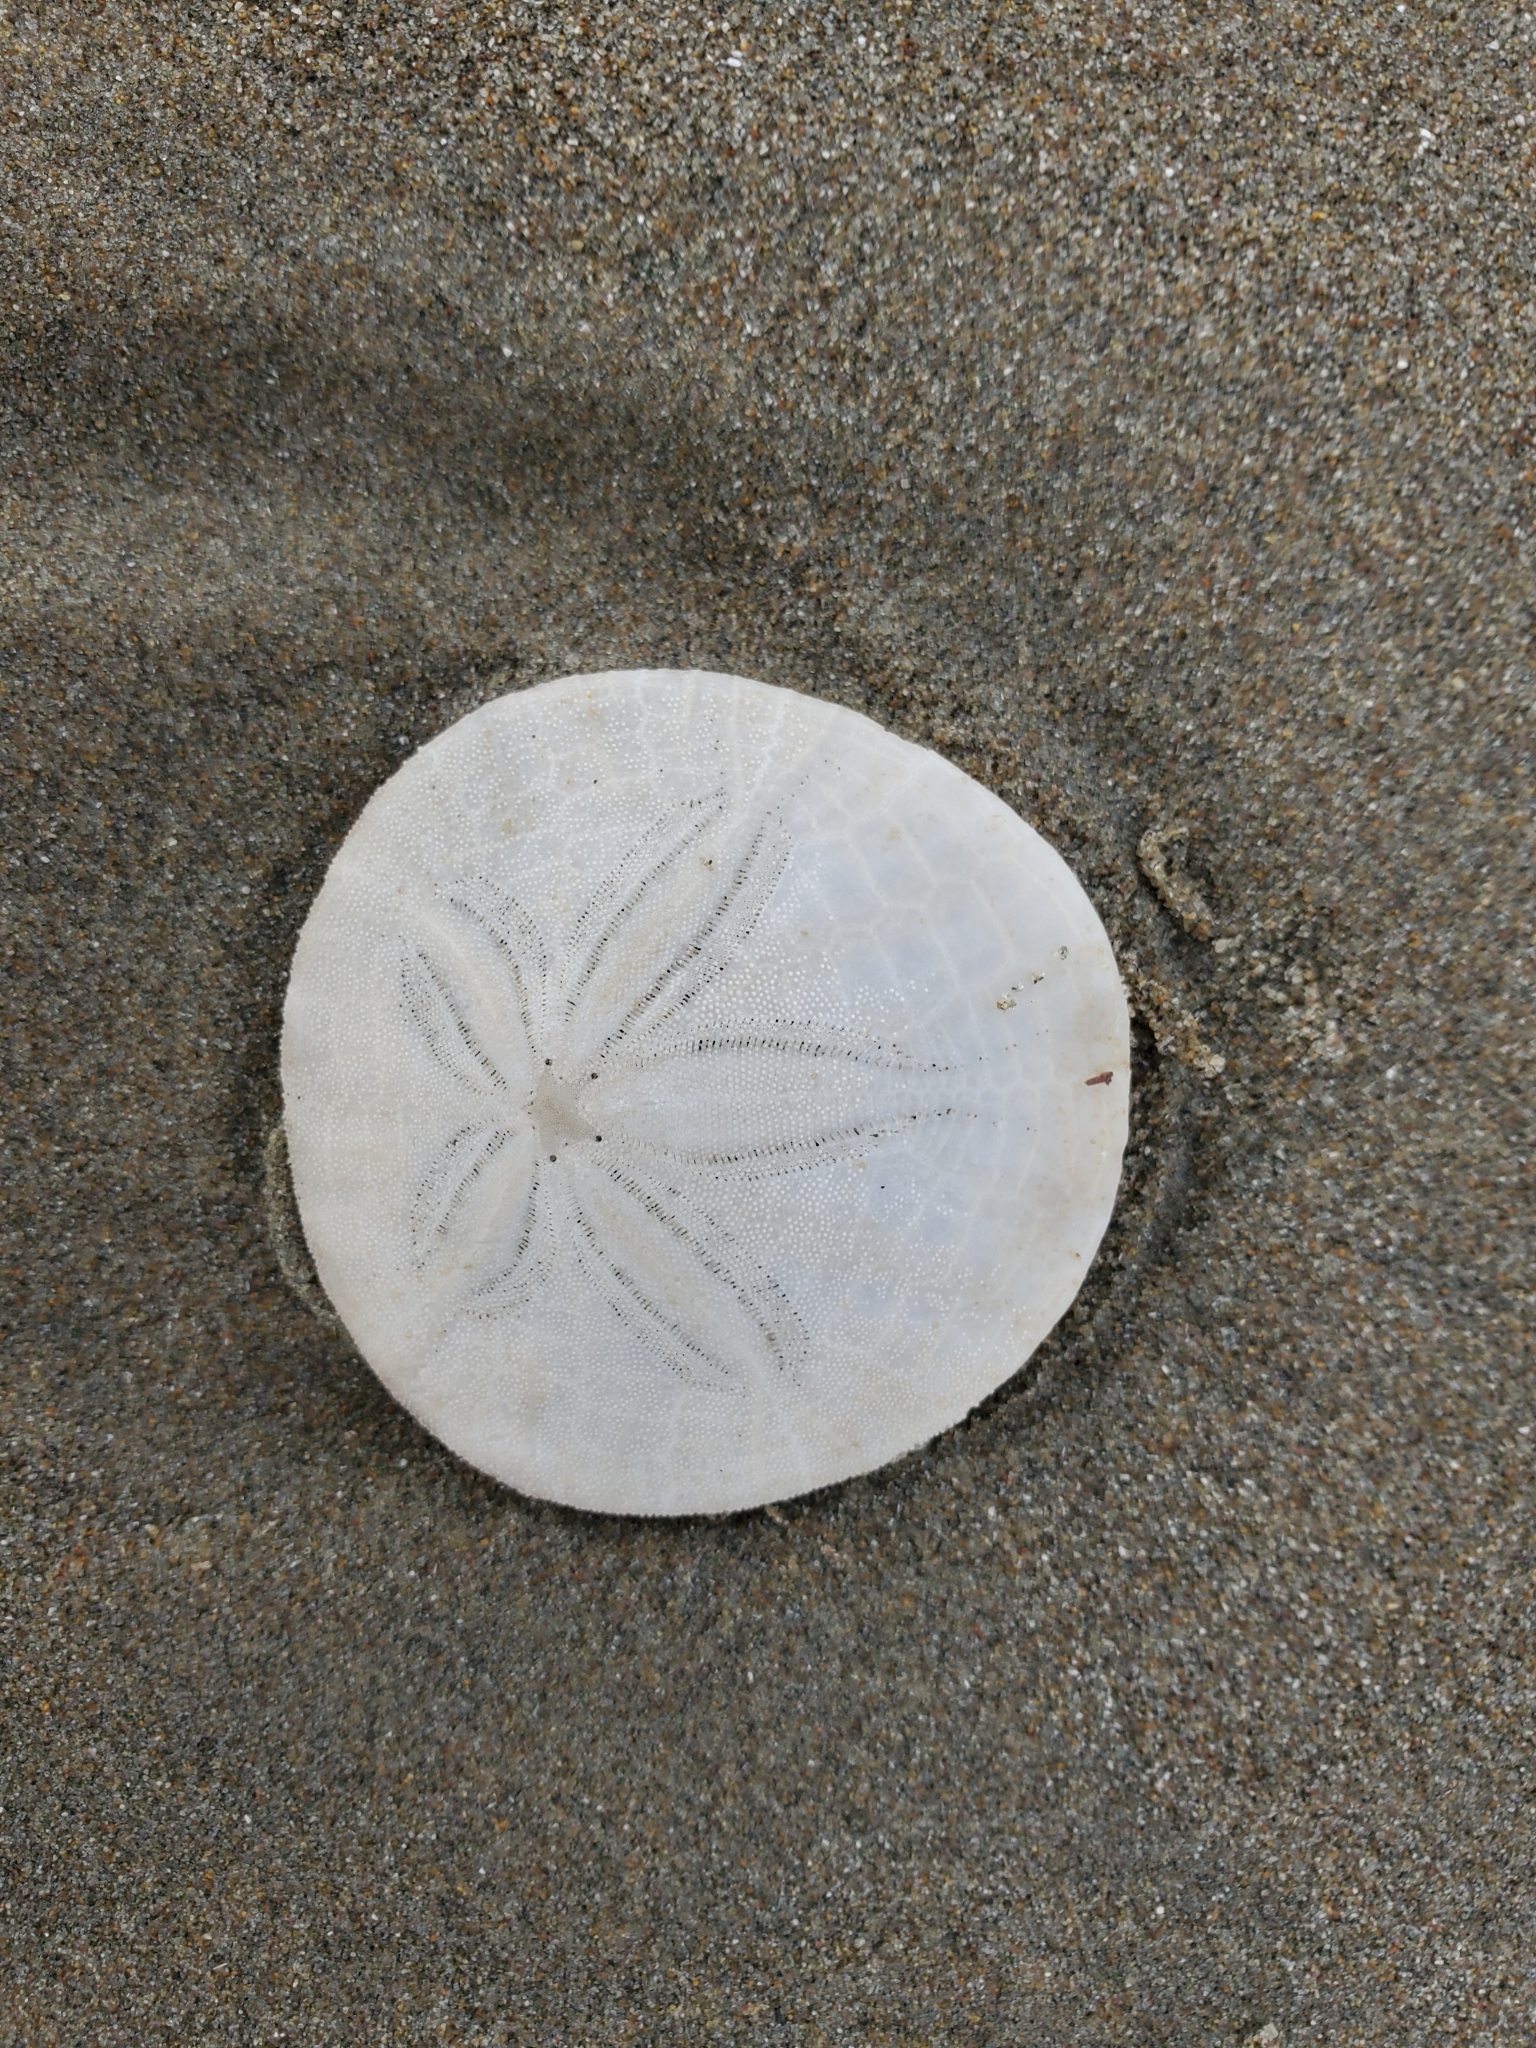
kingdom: Animalia
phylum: Echinodermata
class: Echinoidea
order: Echinolampadacea
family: Dendrasteridae
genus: Dendraster
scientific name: Dendraster excentricus
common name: Eccentric sand dollar sea urchin
